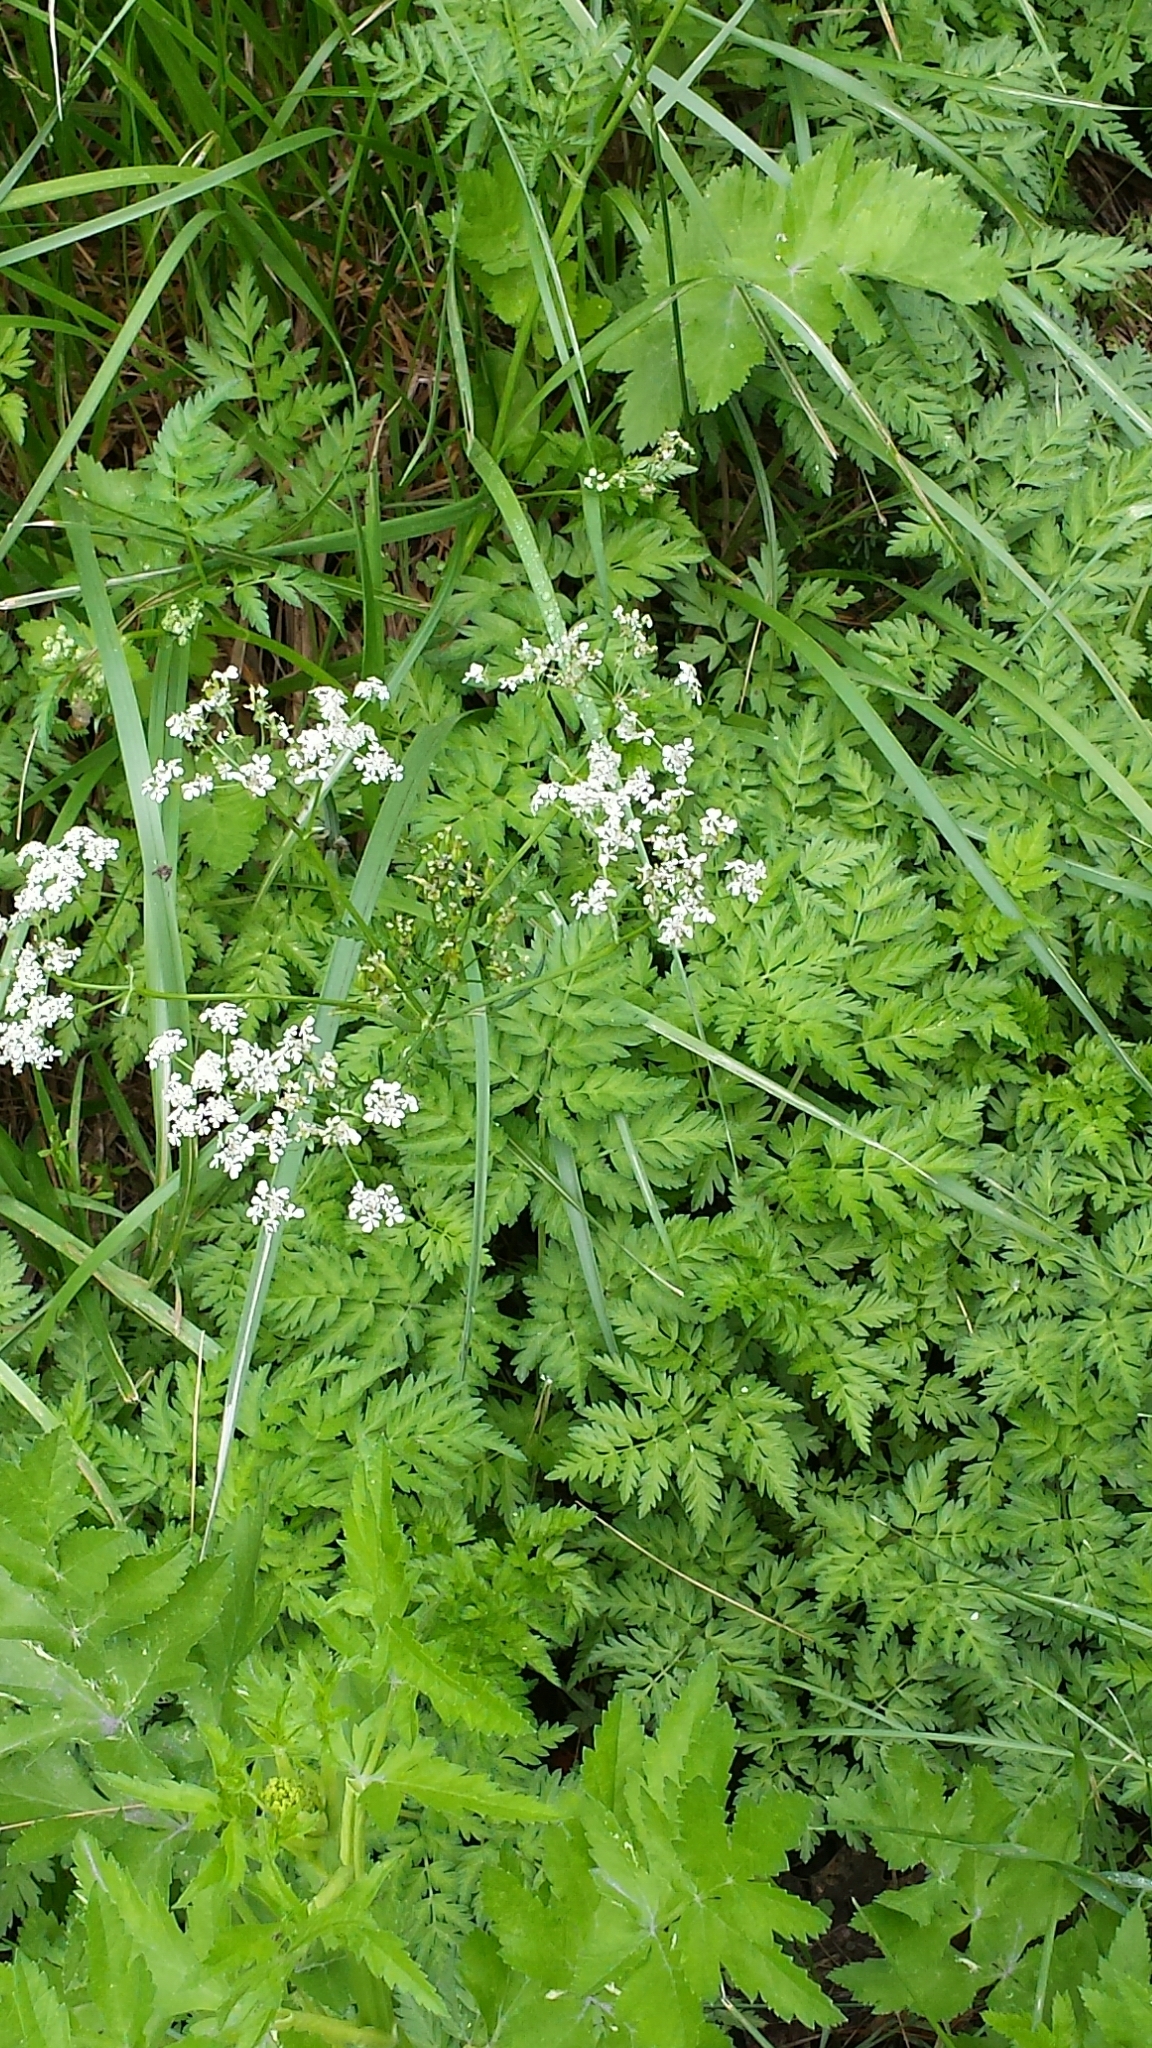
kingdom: Plantae
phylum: Tracheophyta
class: Magnoliopsida
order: Apiales
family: Apiaceae
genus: Anthriscus
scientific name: Anthriscus sylvestris
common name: Cow parsley
